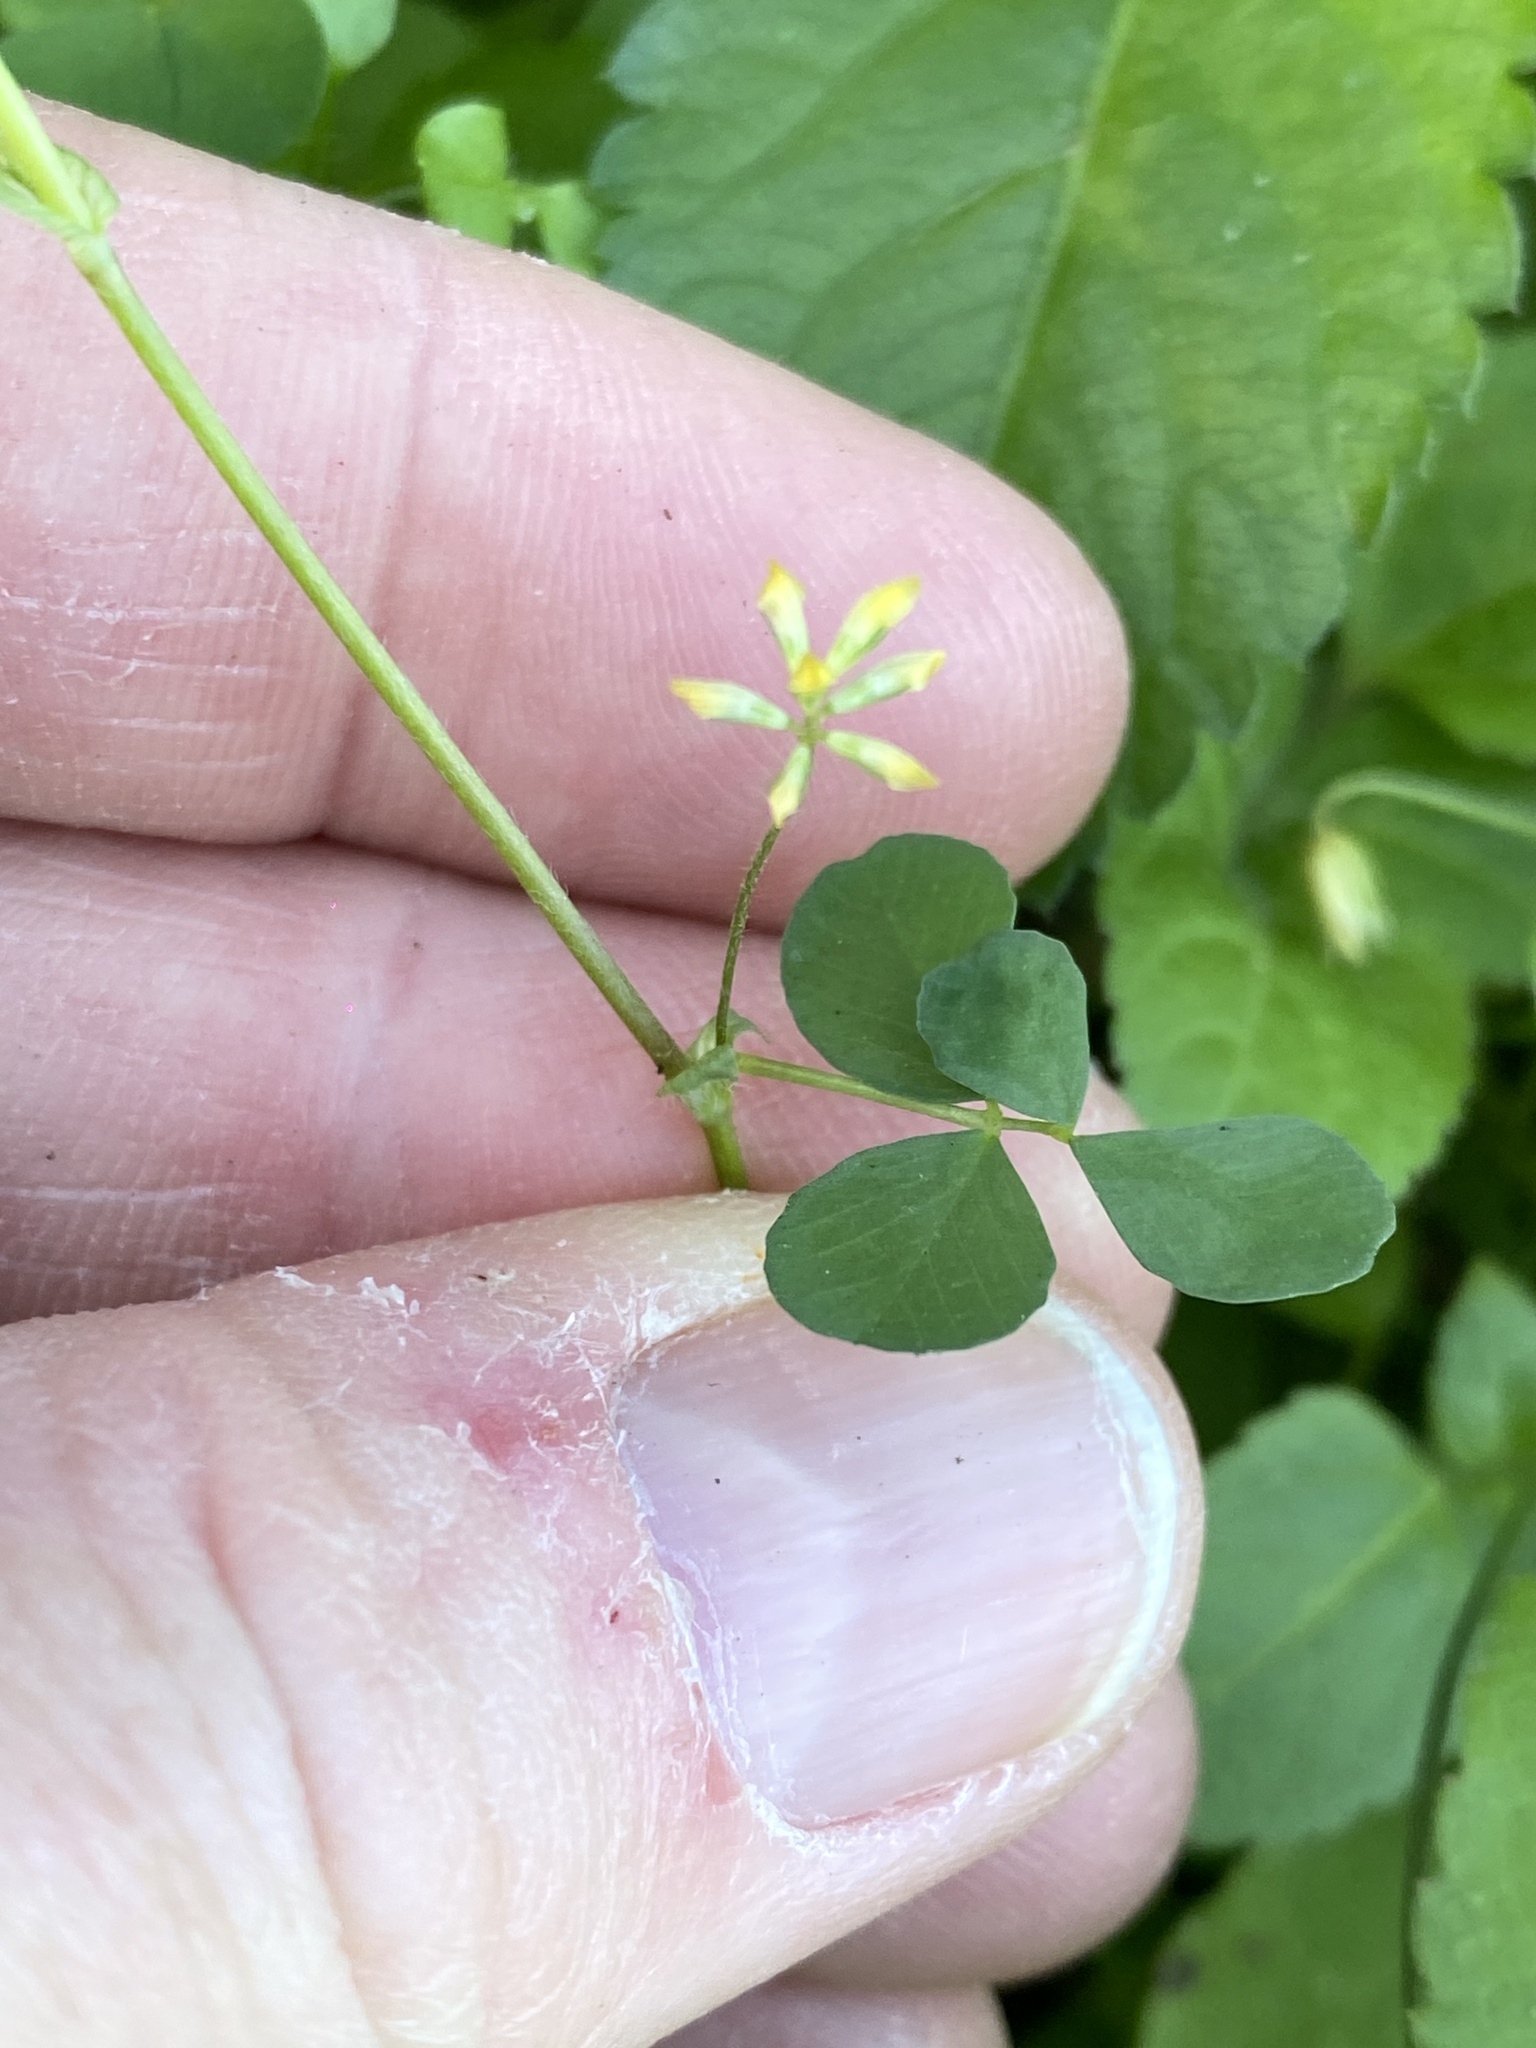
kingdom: Plantae
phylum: Tracheophyta
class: Magnoliopsida
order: Fabales
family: Fabaceae
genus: Trifolium
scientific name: Trifolium dubium
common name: Suckling clover
